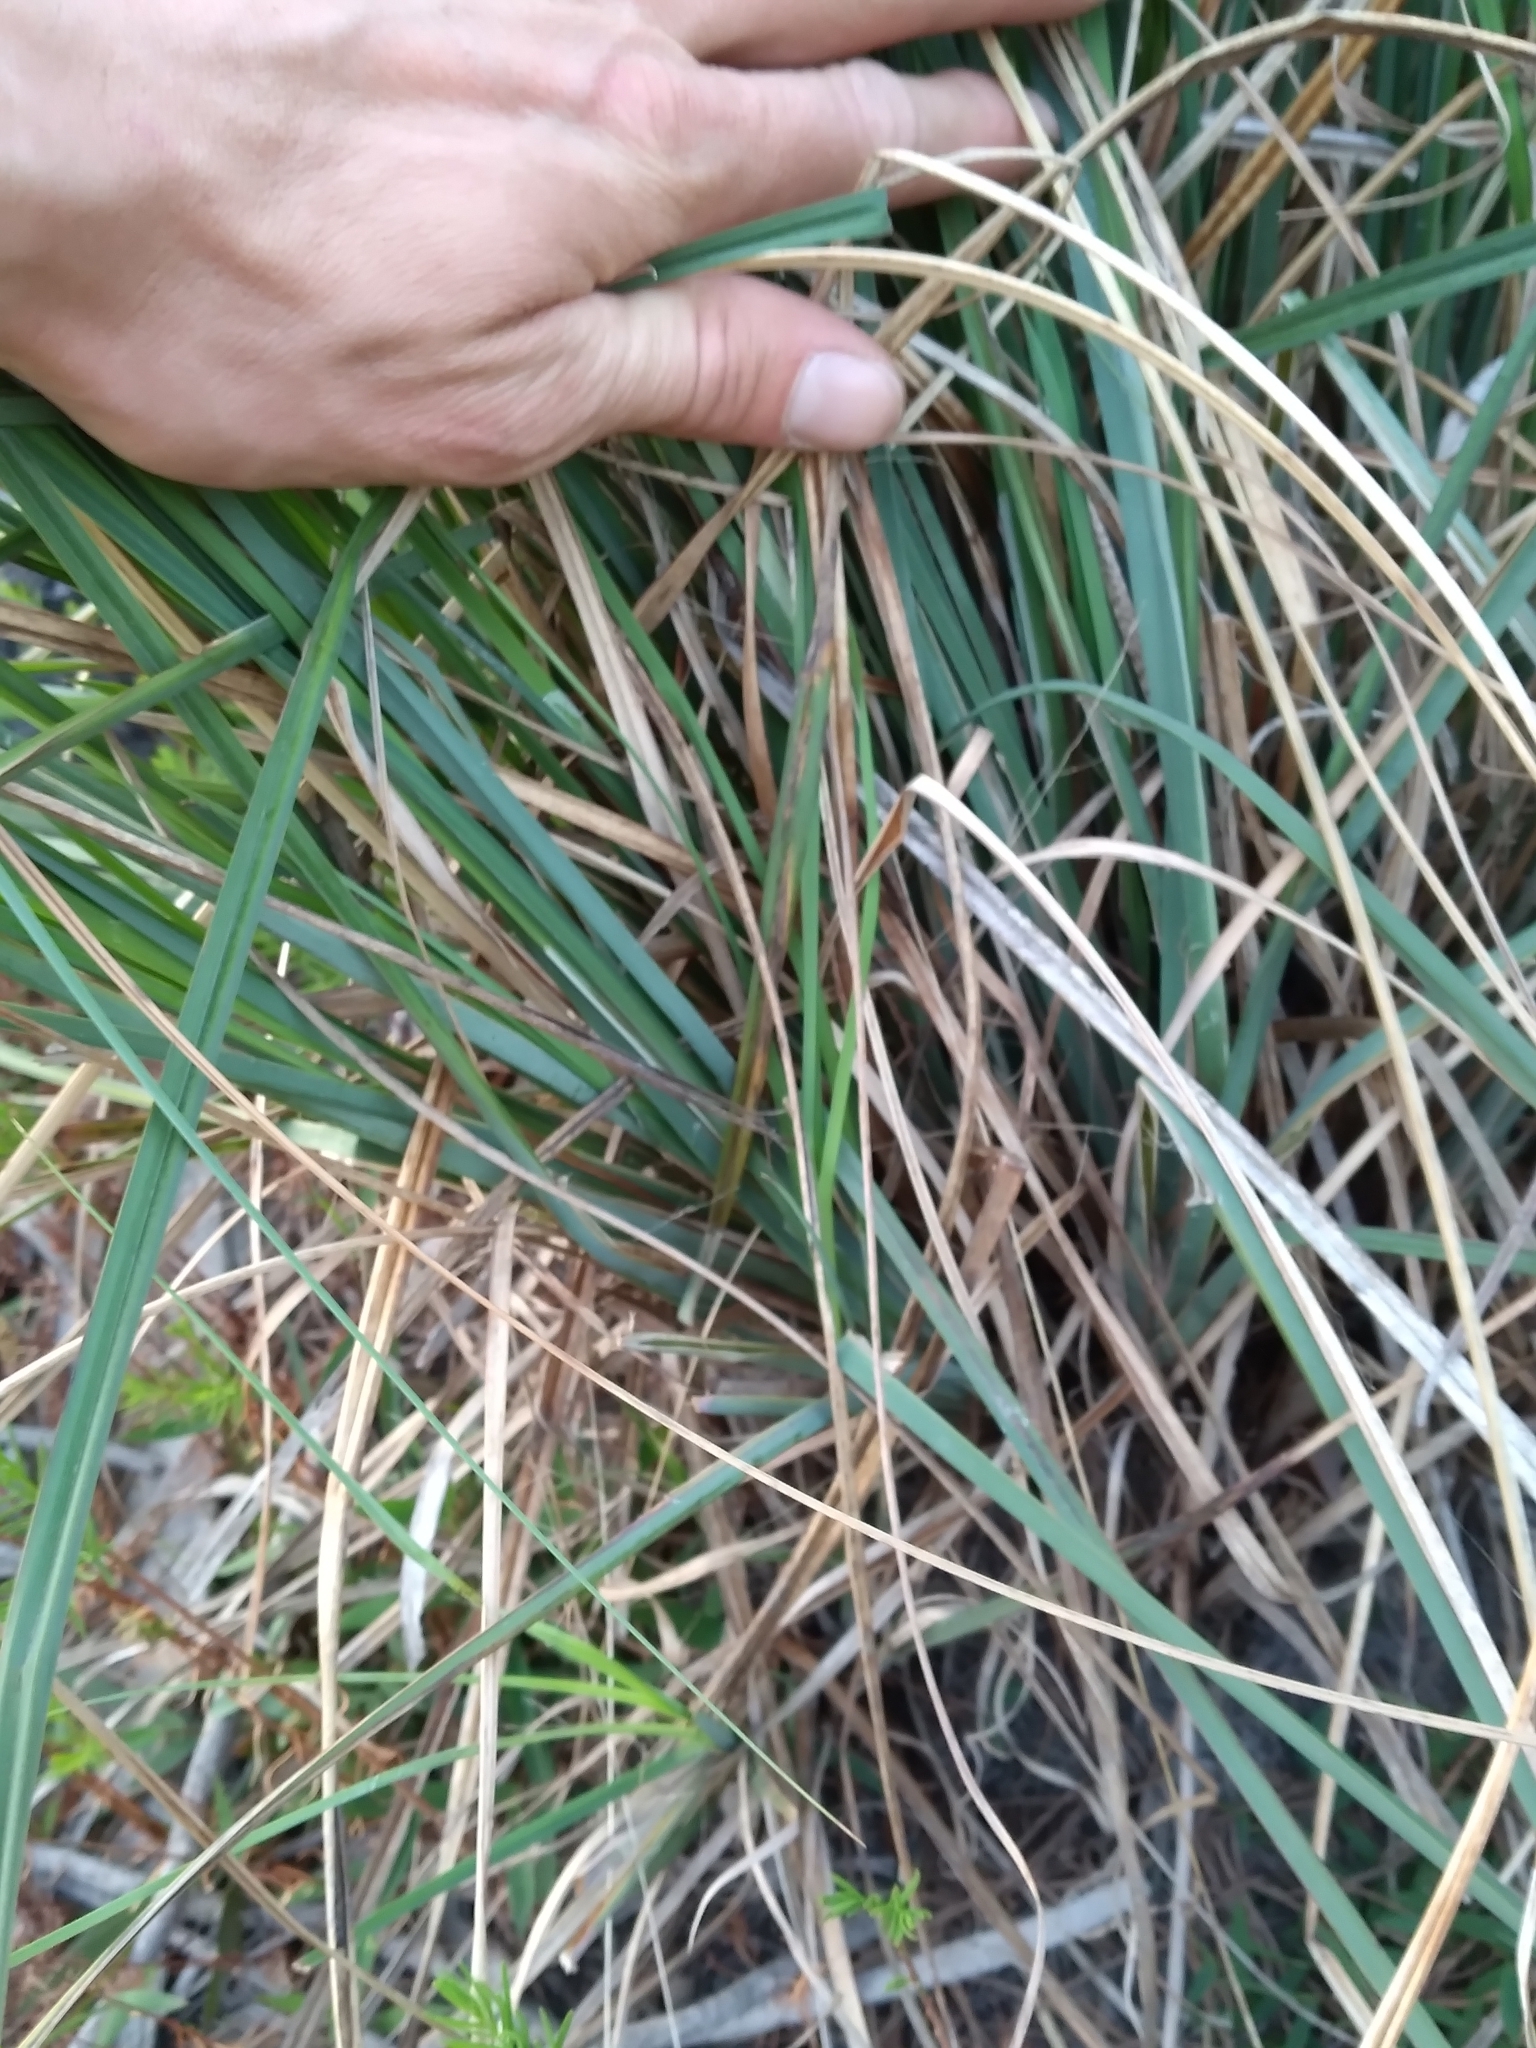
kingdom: Plantae
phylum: Tracheophyta
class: Liliopsida
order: Poales
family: Cyperaceae
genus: Carex
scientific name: Carex glaucescens
